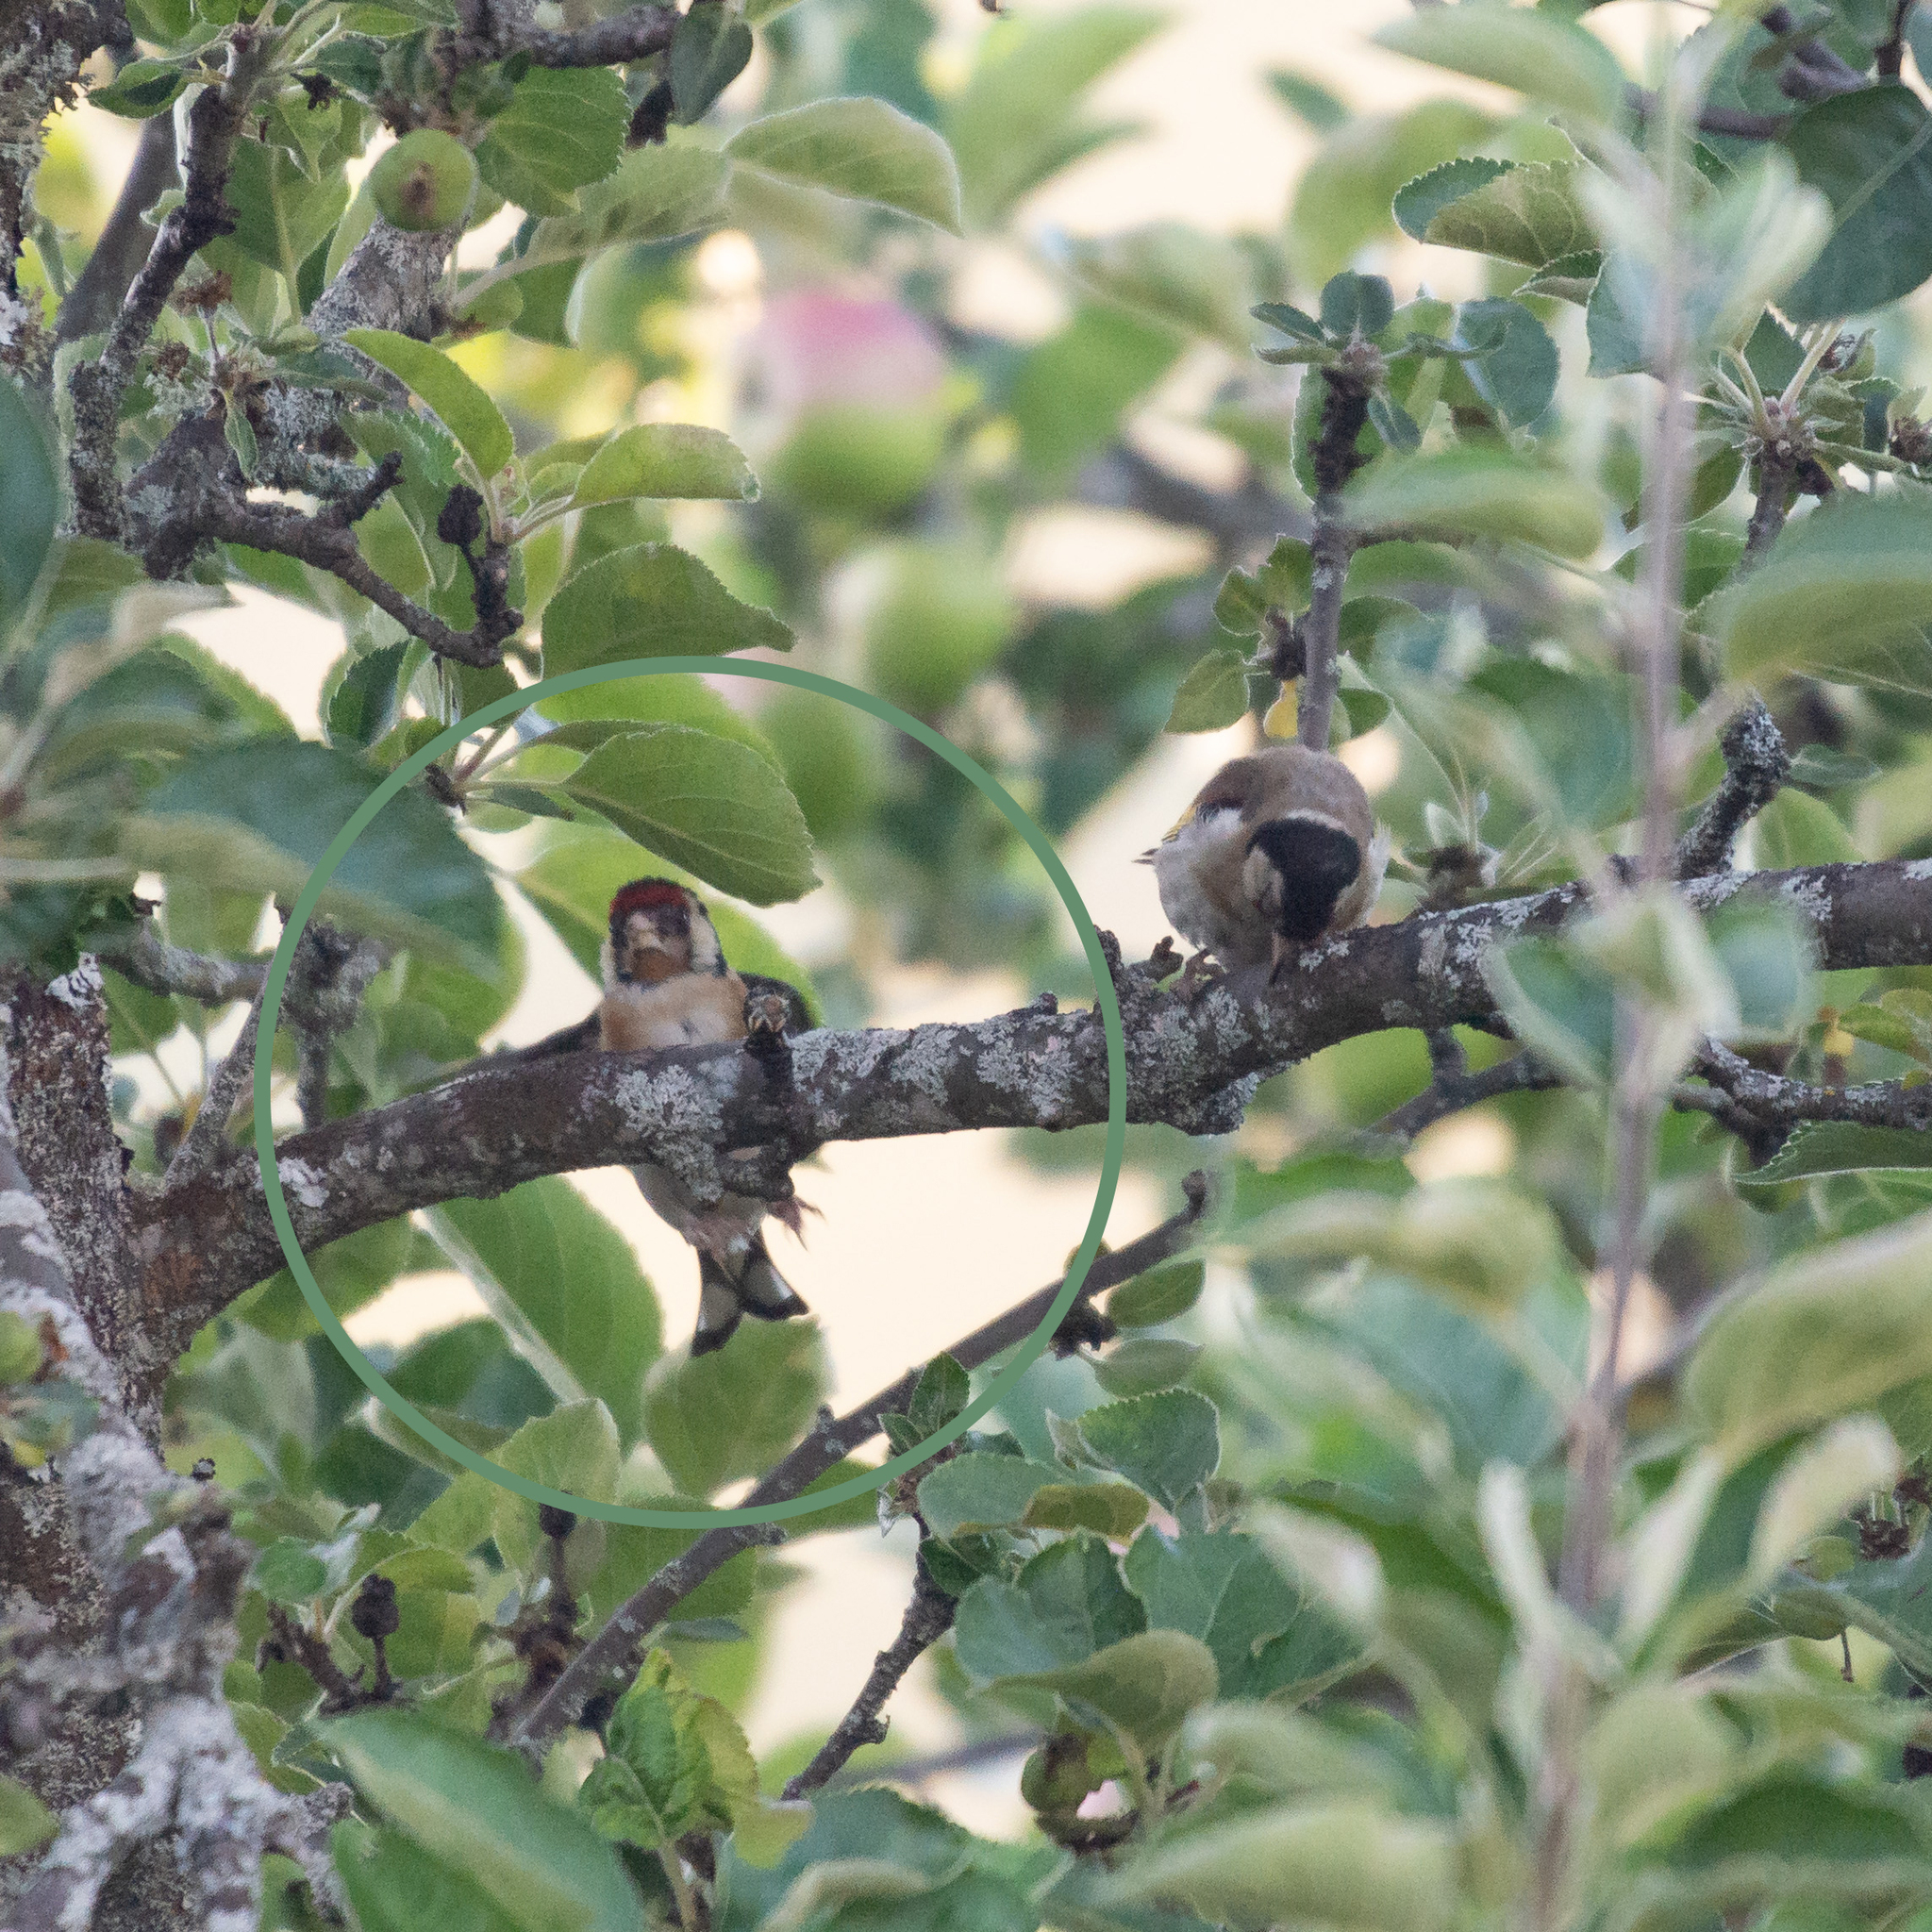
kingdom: Animalia
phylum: Chordata
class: Aves
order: Passeriformes
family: Fringillidae
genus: Carduelis
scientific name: Carduelis carduelis
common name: European goldfinch
